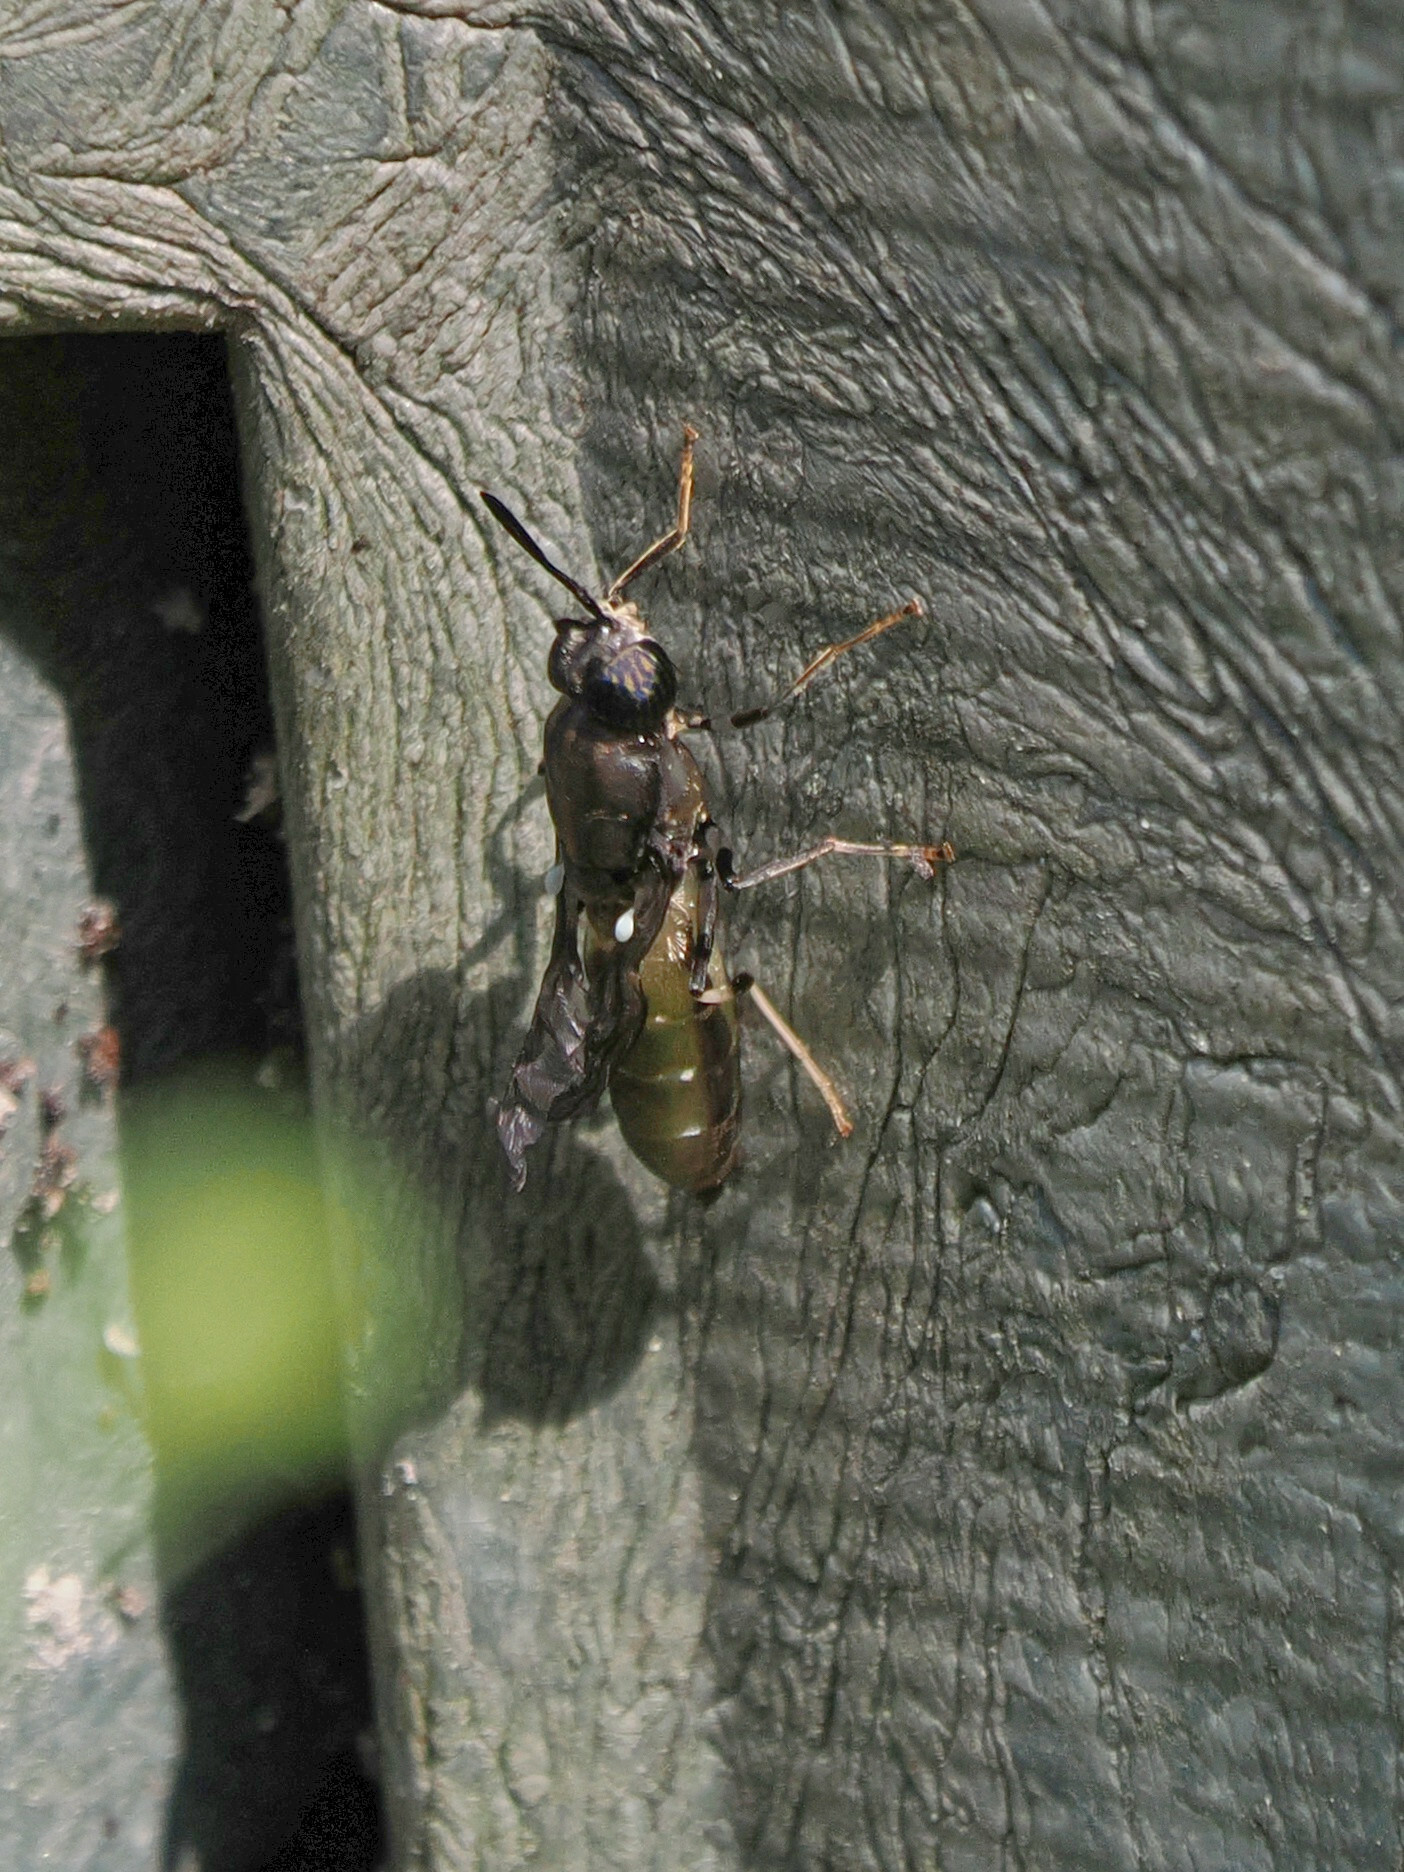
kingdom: Animalia
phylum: Arthropoda
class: Insecta
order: Diptera
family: Stratiomyidae
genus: Hermetia
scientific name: Hermetia illucens
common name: Black soldier fly
